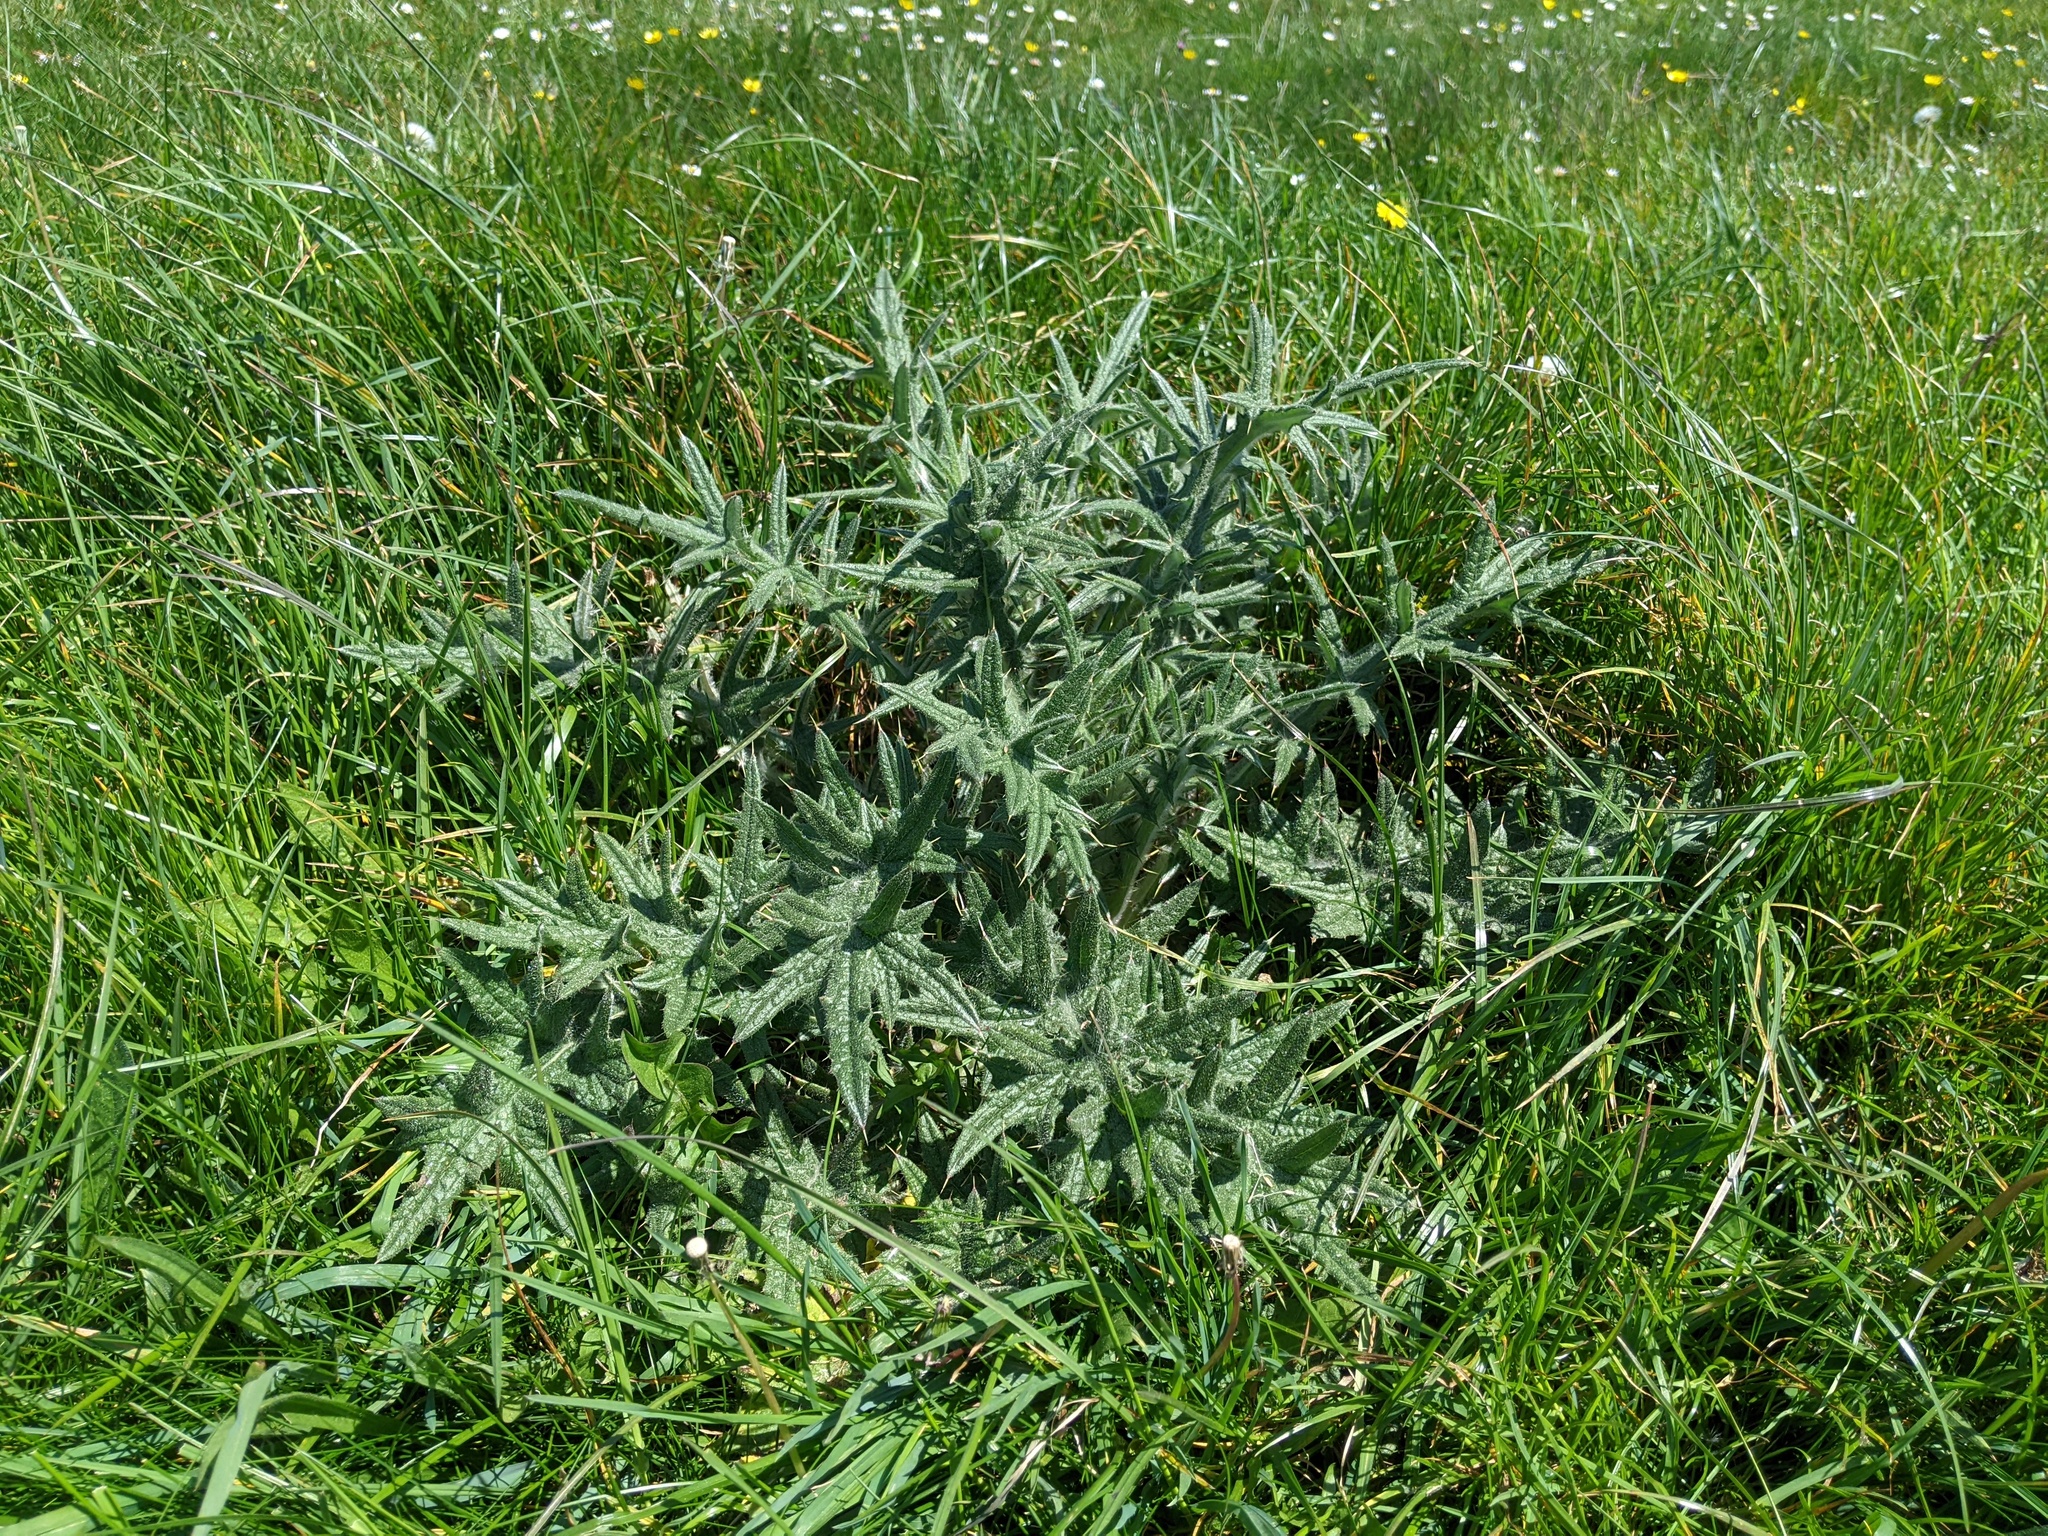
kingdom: Plantae
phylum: Tracheophyta
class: Magnoliopsida
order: Asterales
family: Asteraceae
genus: Cirsium
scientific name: Cirsium vulgare
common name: Bull thistle
